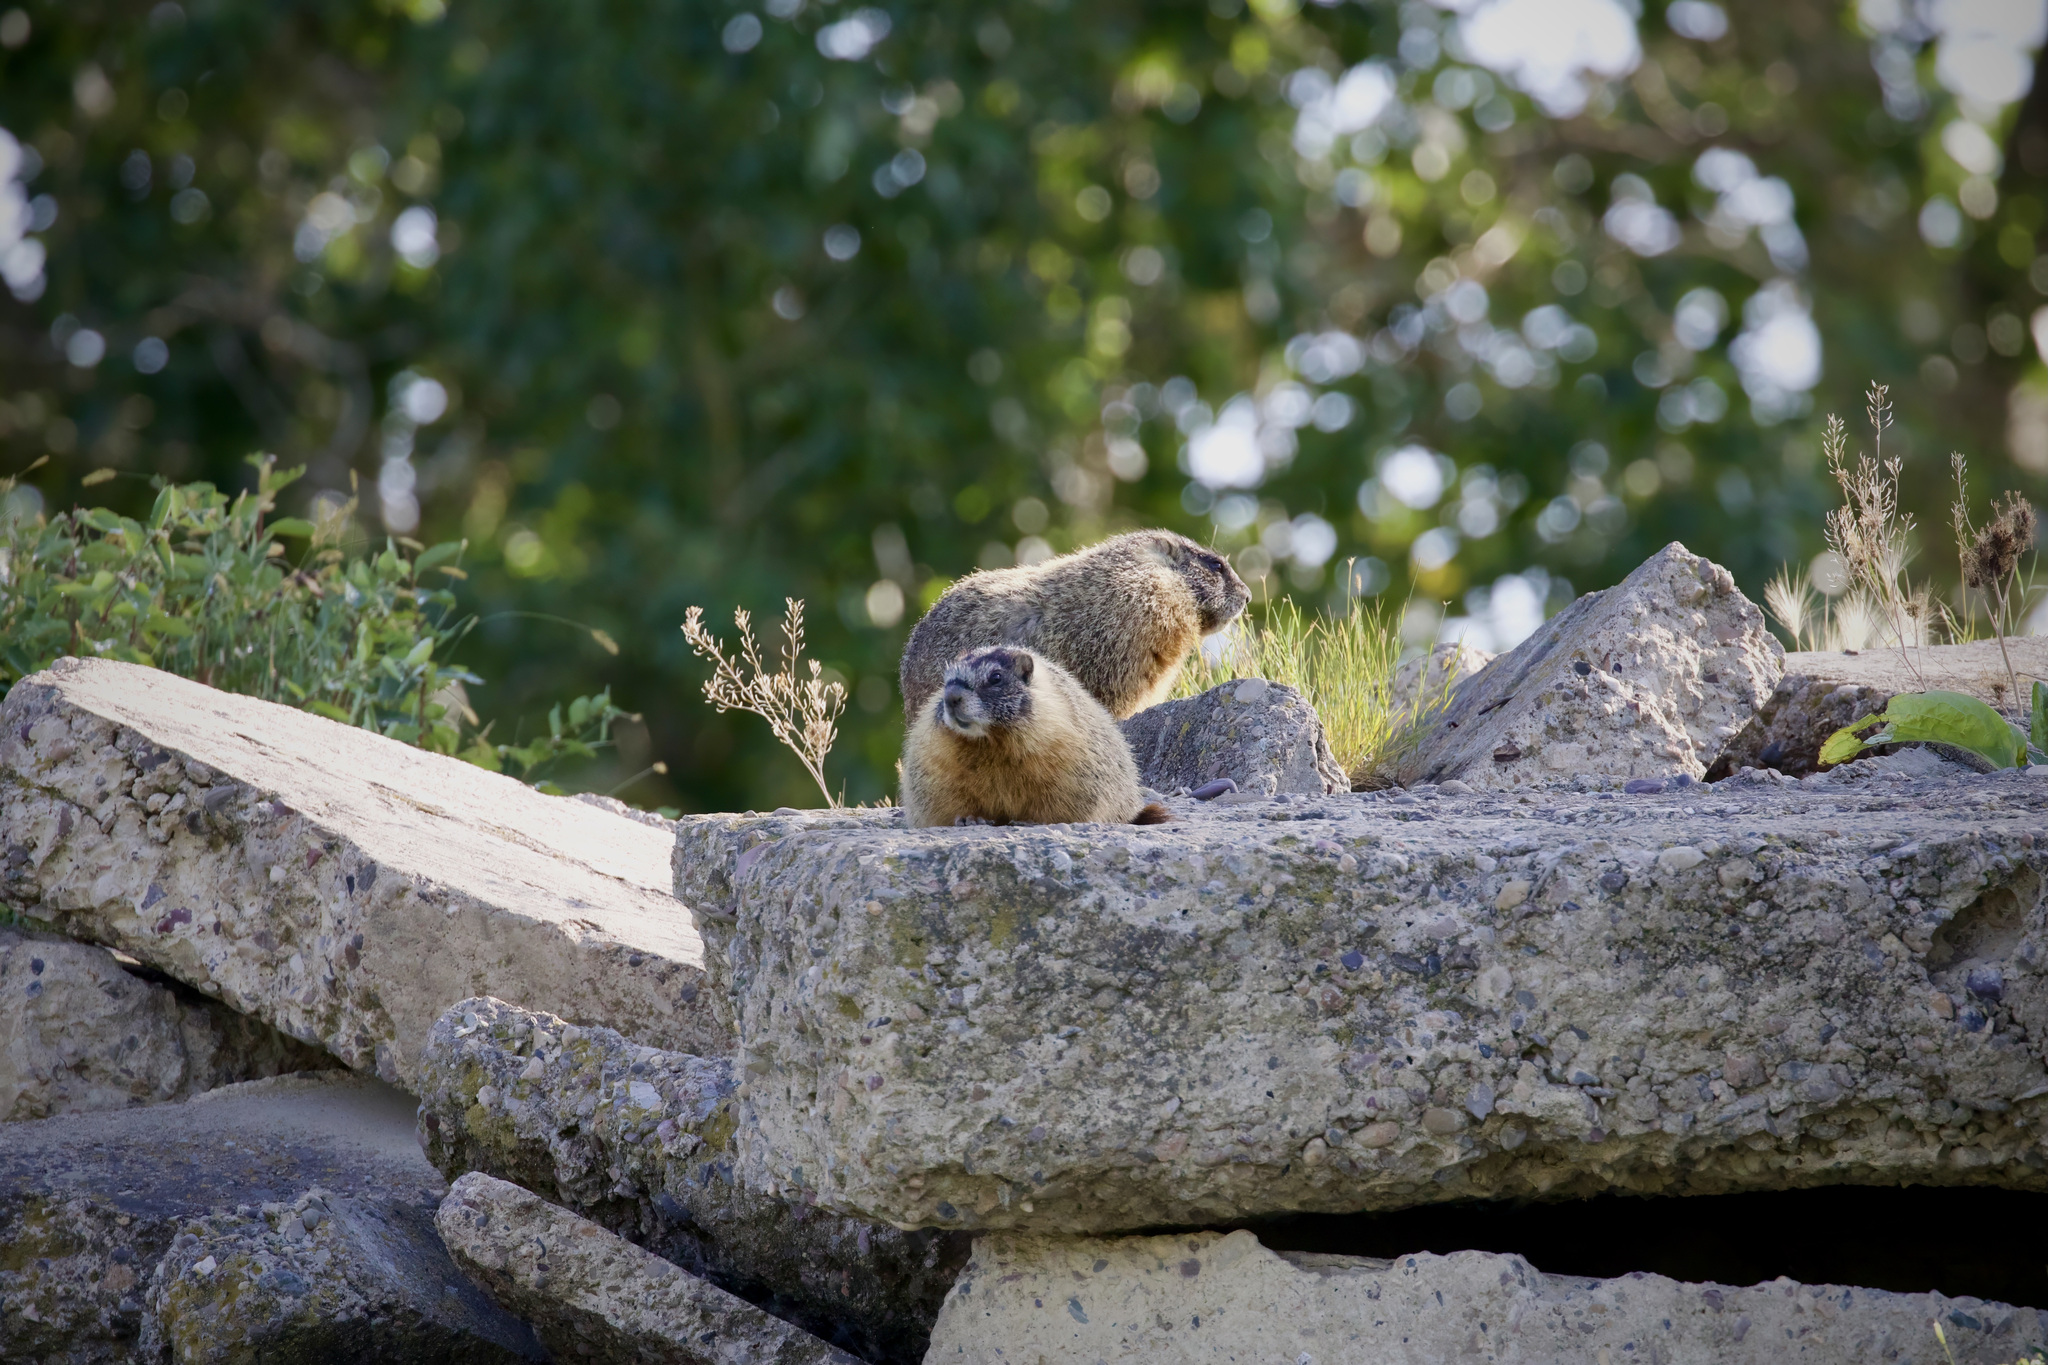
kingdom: Animalia
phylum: Chordata
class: Mammalia
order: Rodentia
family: Sciuridae
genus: Marmota
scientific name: Marmota flaviventris
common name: Yellow-bellied marmot
